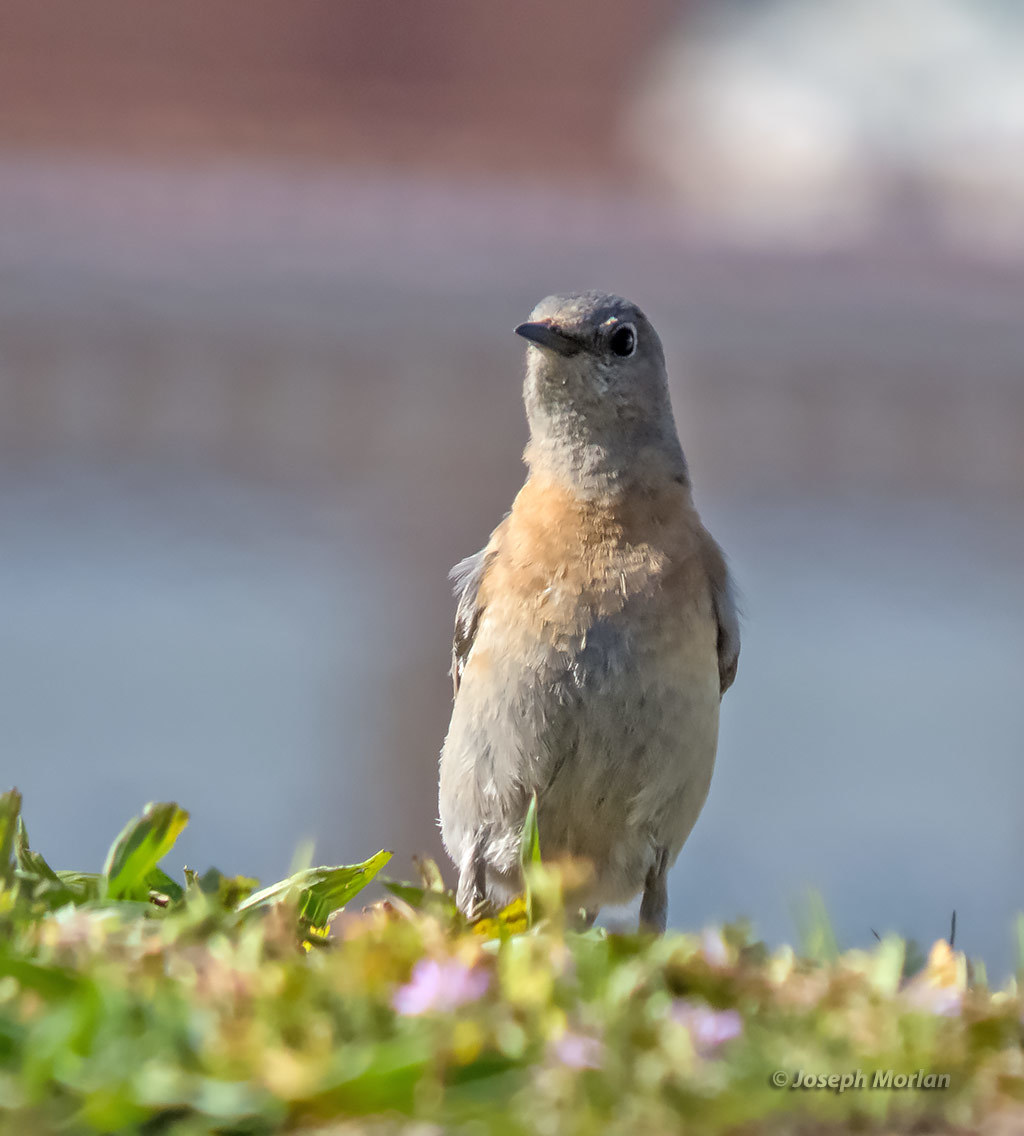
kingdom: Animalia
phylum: Chordata
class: Aves
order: Passeriformes
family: Turdidae
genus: Sialia
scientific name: Sialia mexicana
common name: Western bluebird
